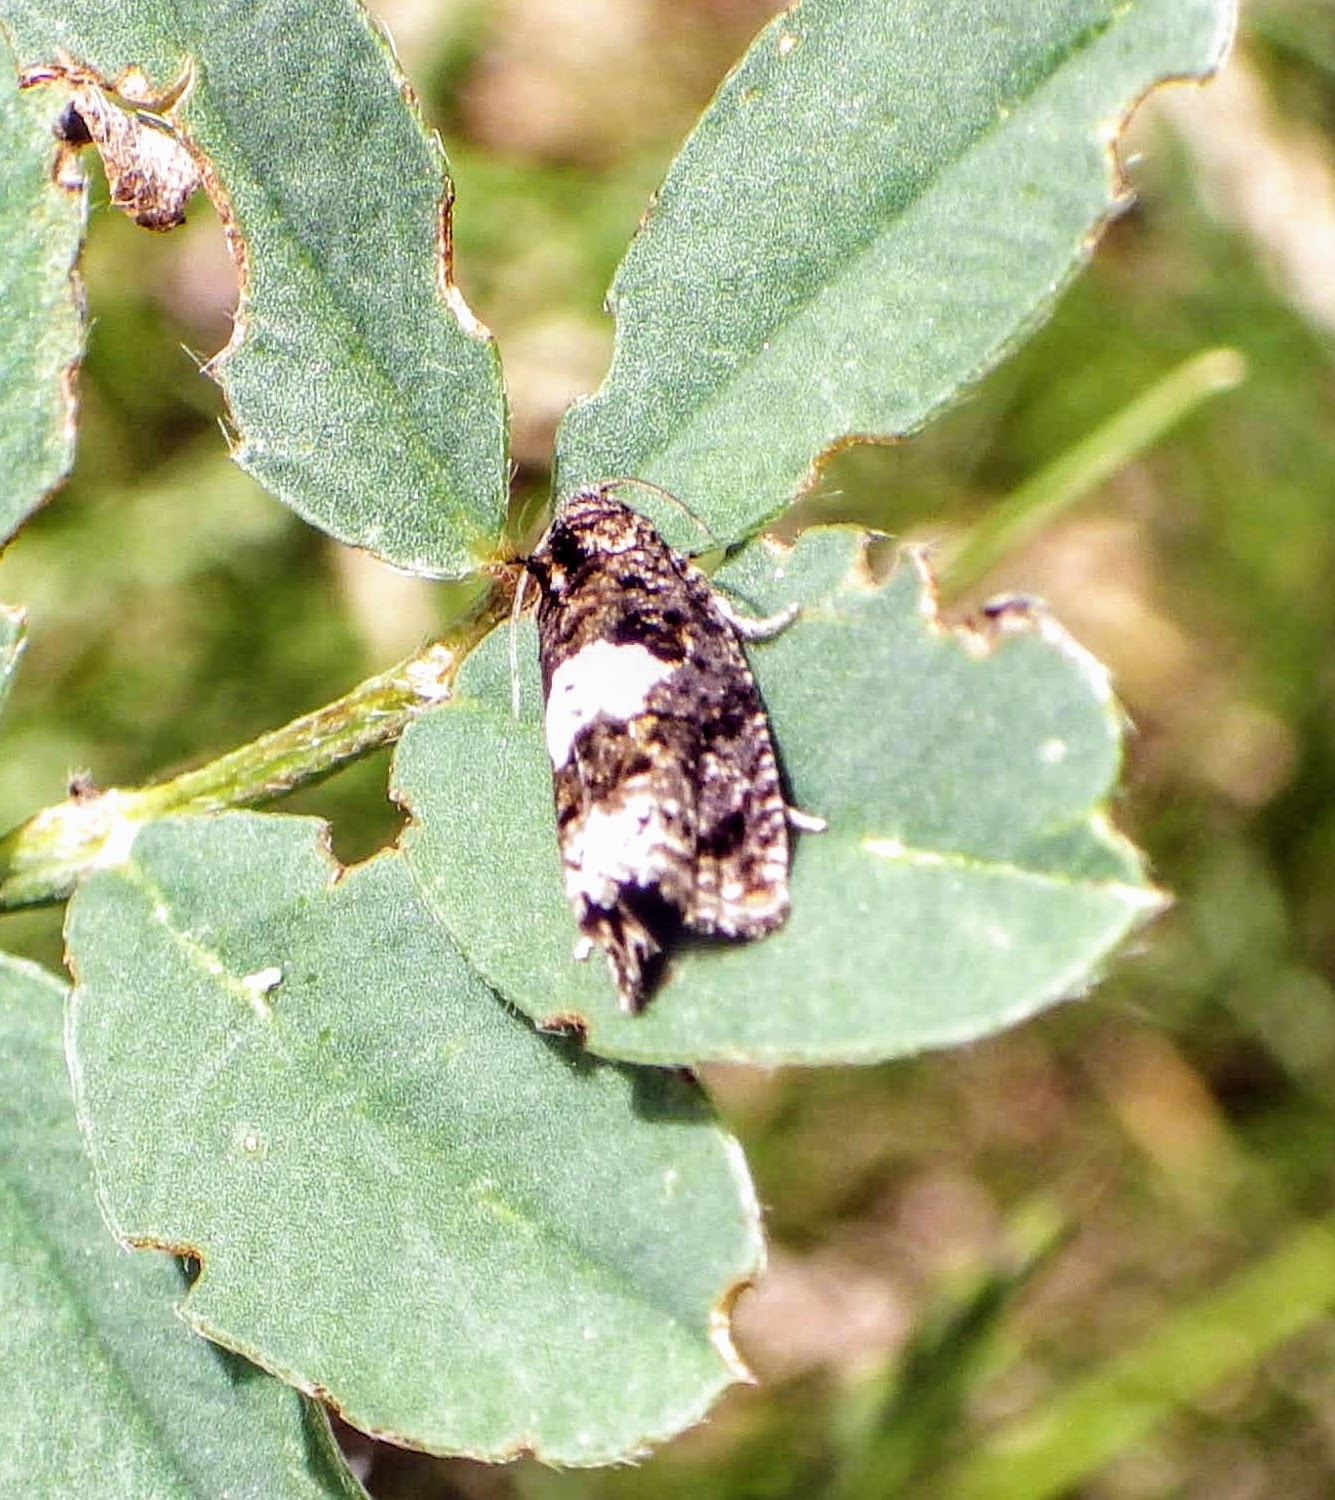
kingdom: Animalia
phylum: Arthropoda
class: Insecta
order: Lepidoptera
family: Tortricidae
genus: Epiblema
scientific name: Epiblema costipunctana
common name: Ragwort bell
